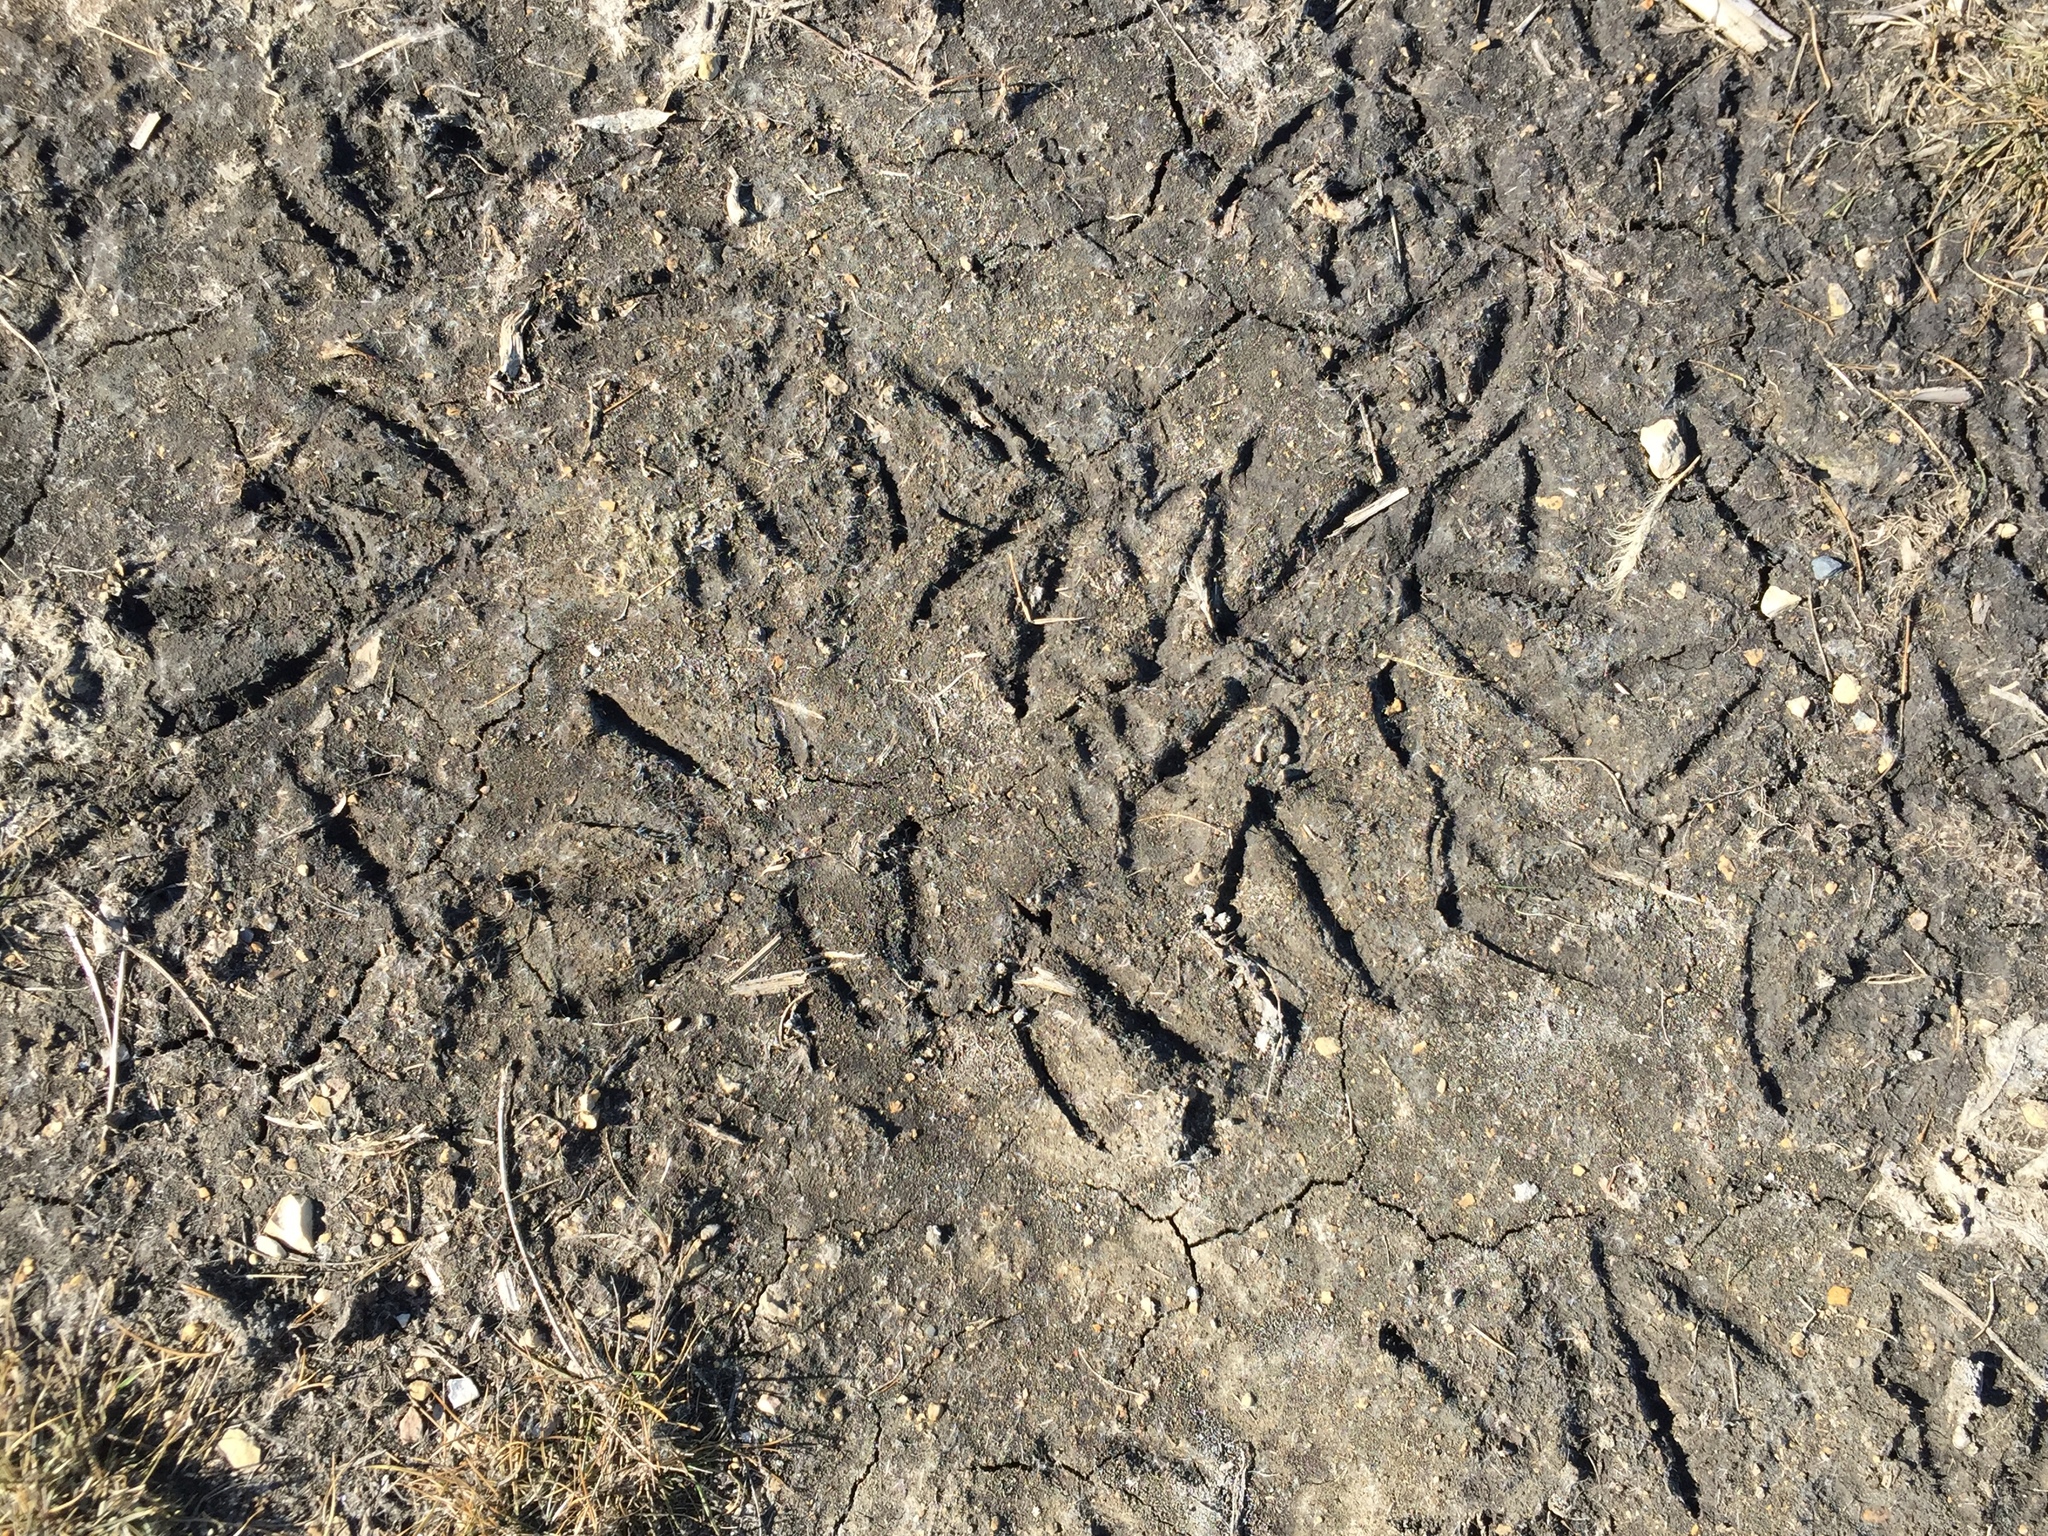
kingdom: Animalia
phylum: Chordata
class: Aves
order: Anseriformes
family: Anatidae
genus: Branta
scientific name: Branta canadensis
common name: Canada goose
